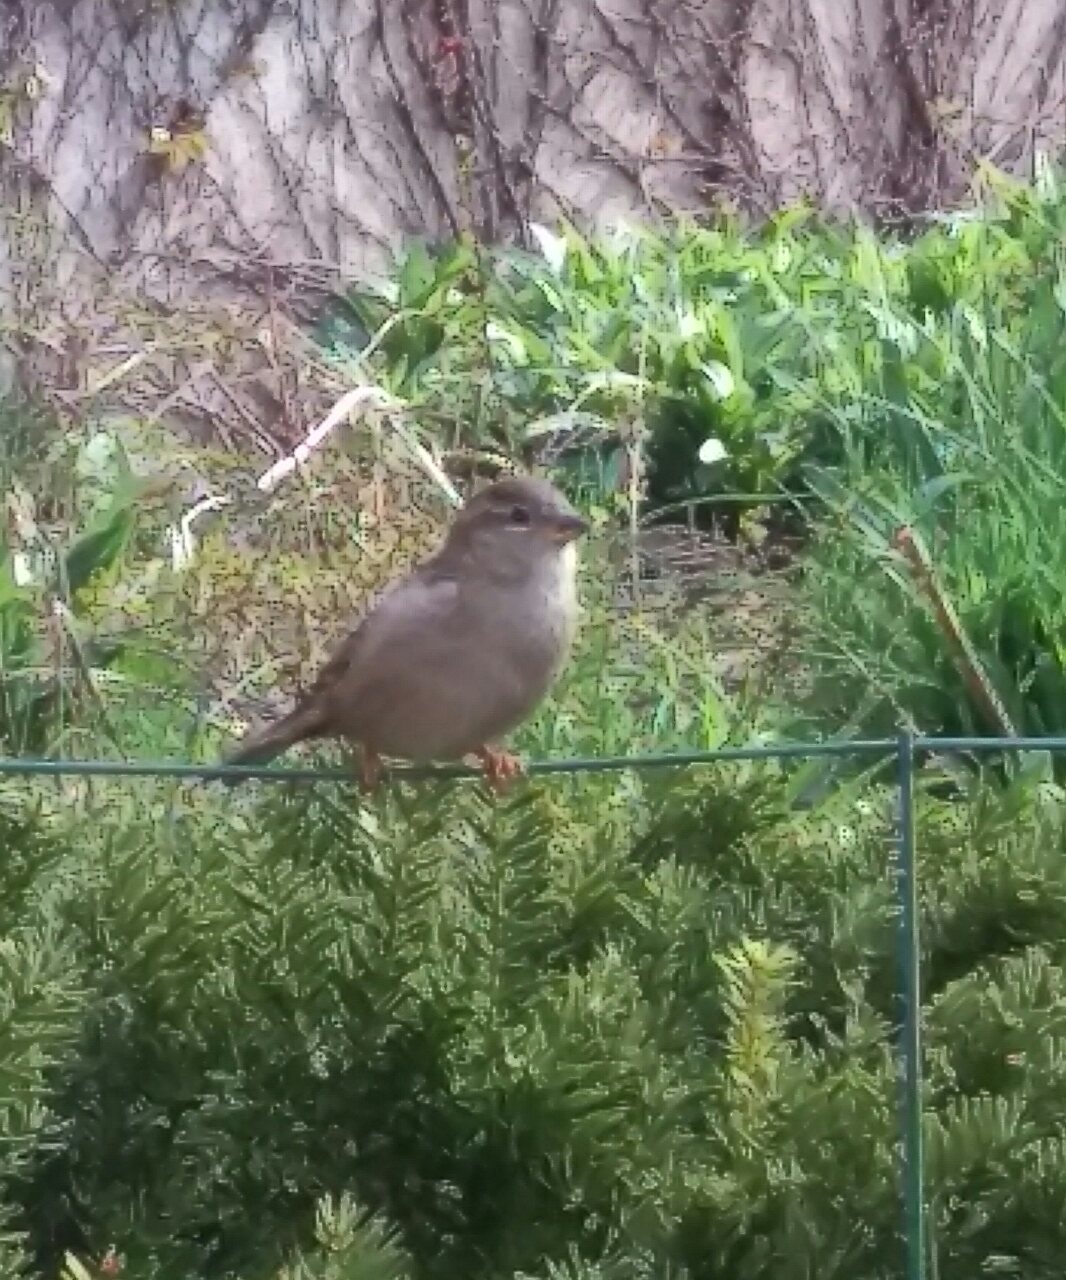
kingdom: Animalia
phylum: Chordata
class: Aves
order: Passeriformes
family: Passeridae
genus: Passer
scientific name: Passer domesticus
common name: House sparrow
